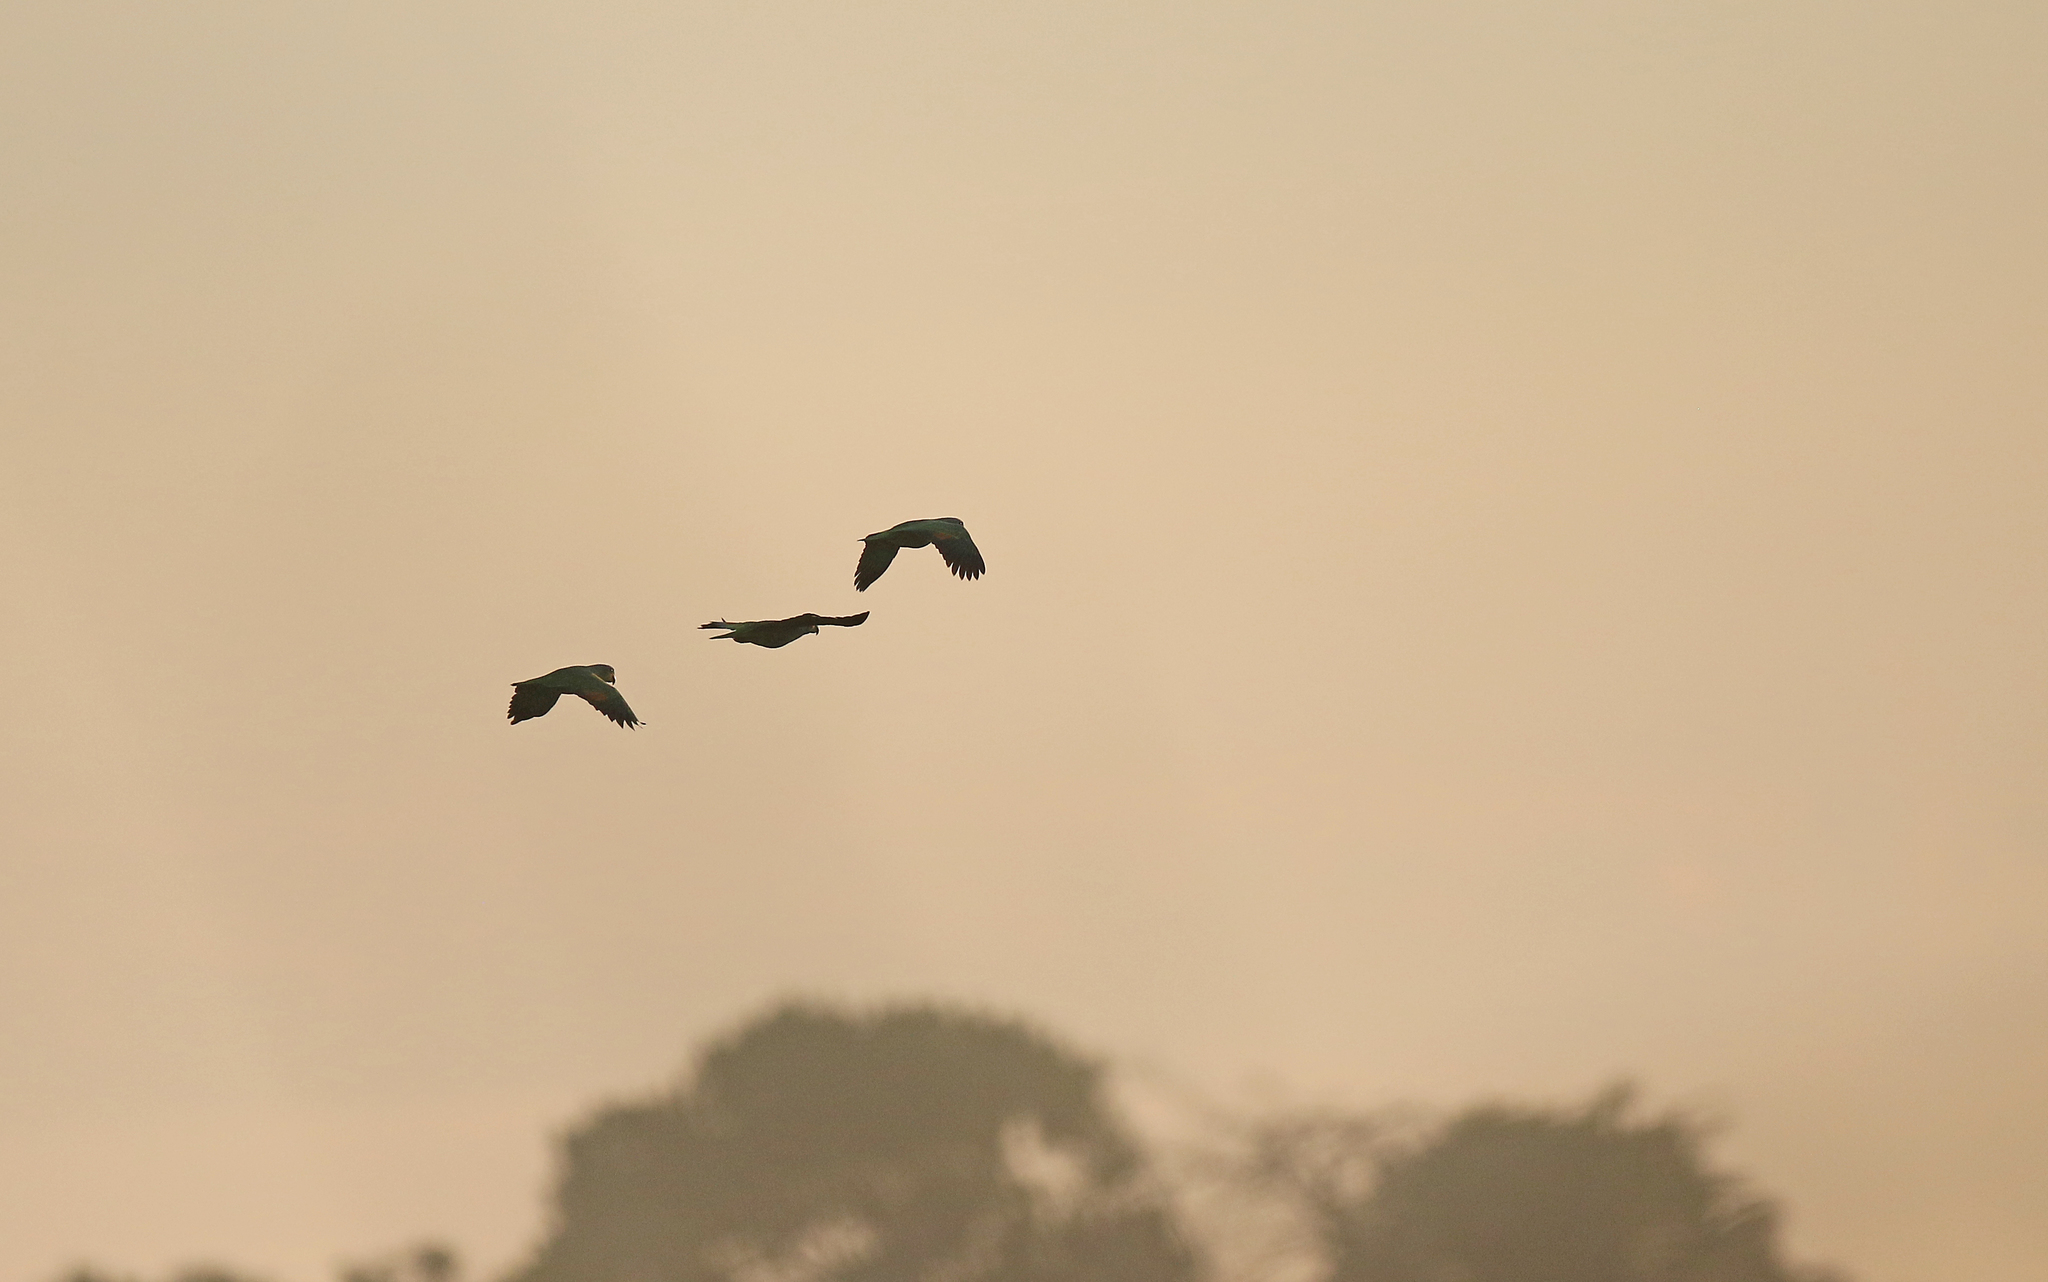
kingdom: Animalia
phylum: Chordata
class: Aves
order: Psittaciformes
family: Psittacidae
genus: Amazona
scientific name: Amazona amazonica
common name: Orange-winged amazon
